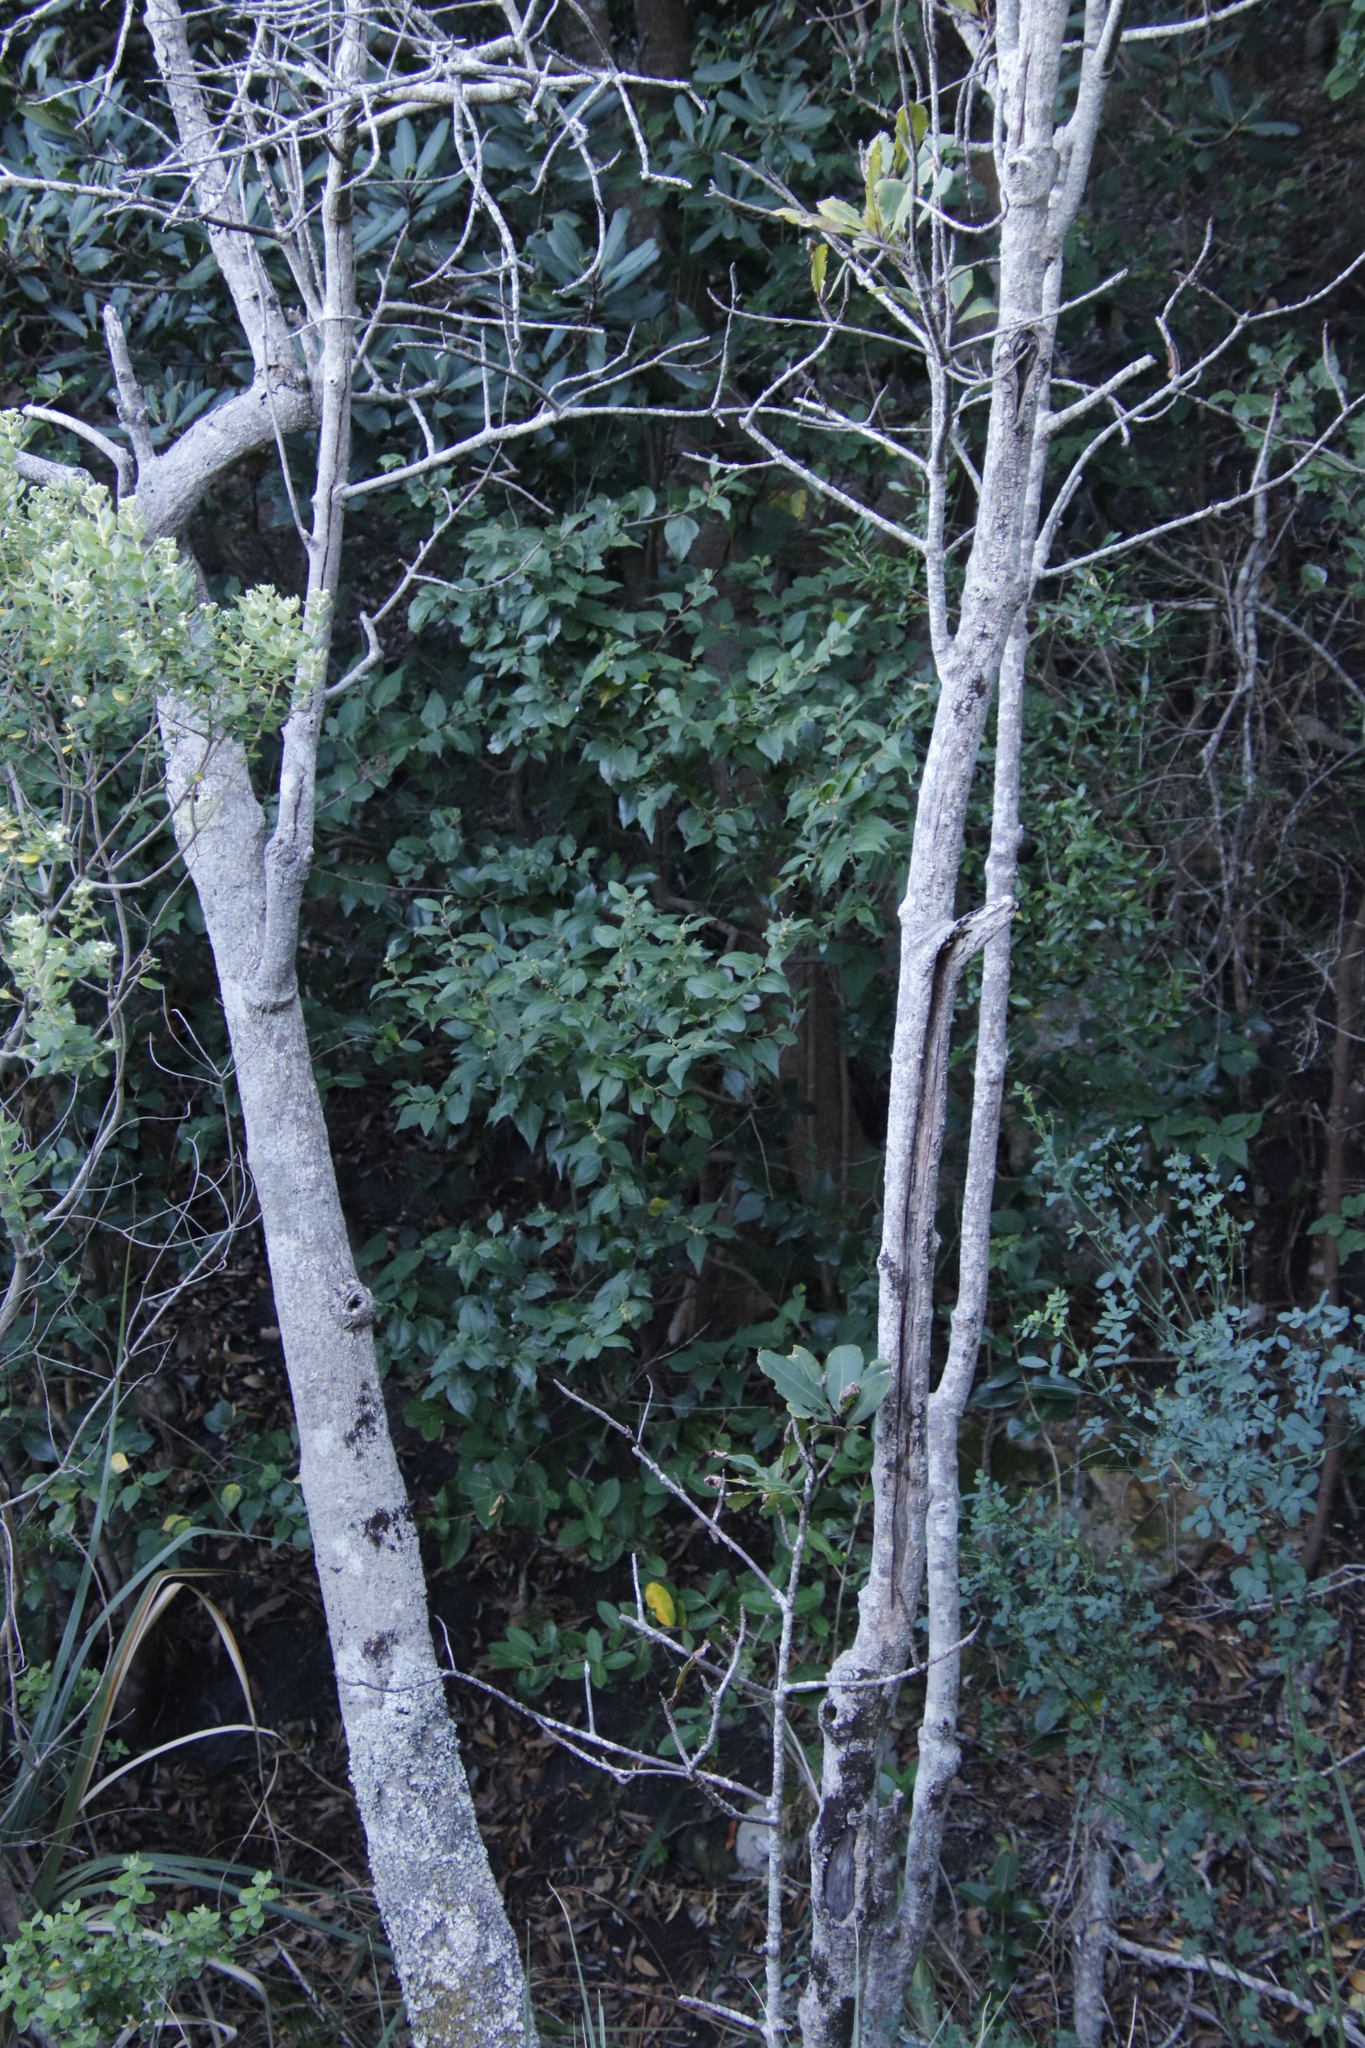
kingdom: Plantae
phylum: Tracheophyta
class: Magnoliopsida
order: Celastrales
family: Celastraceae
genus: Gymnosporia
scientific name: Gymnosporia acuminata
